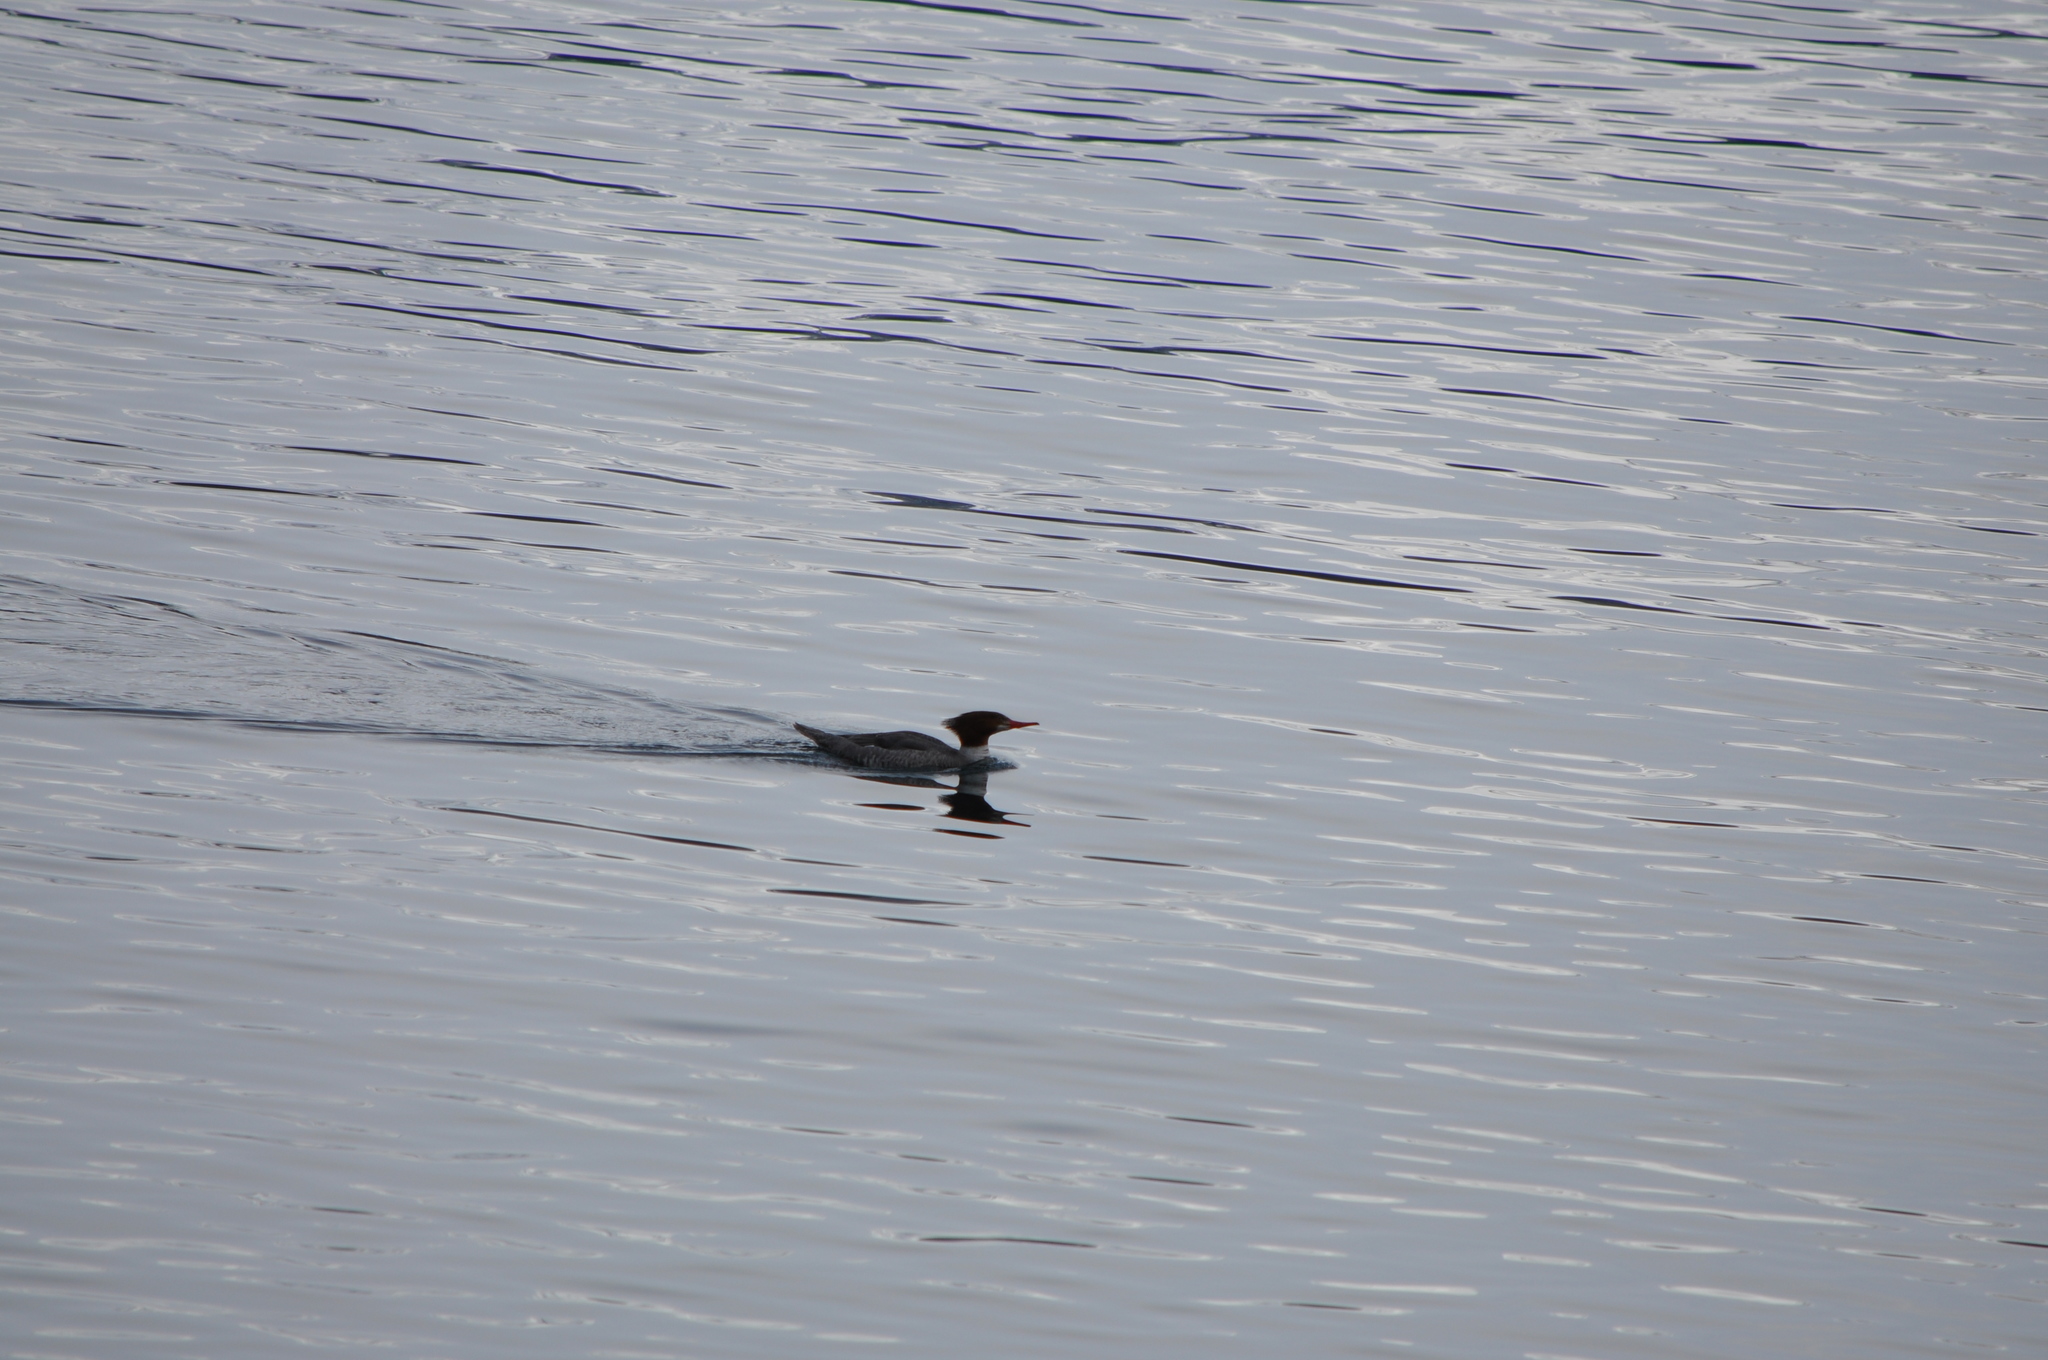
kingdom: Animalia
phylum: Chordata
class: Aves
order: Anseriformes
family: Anatidae
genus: Mergus
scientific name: Mergus merganser
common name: Common merganser
